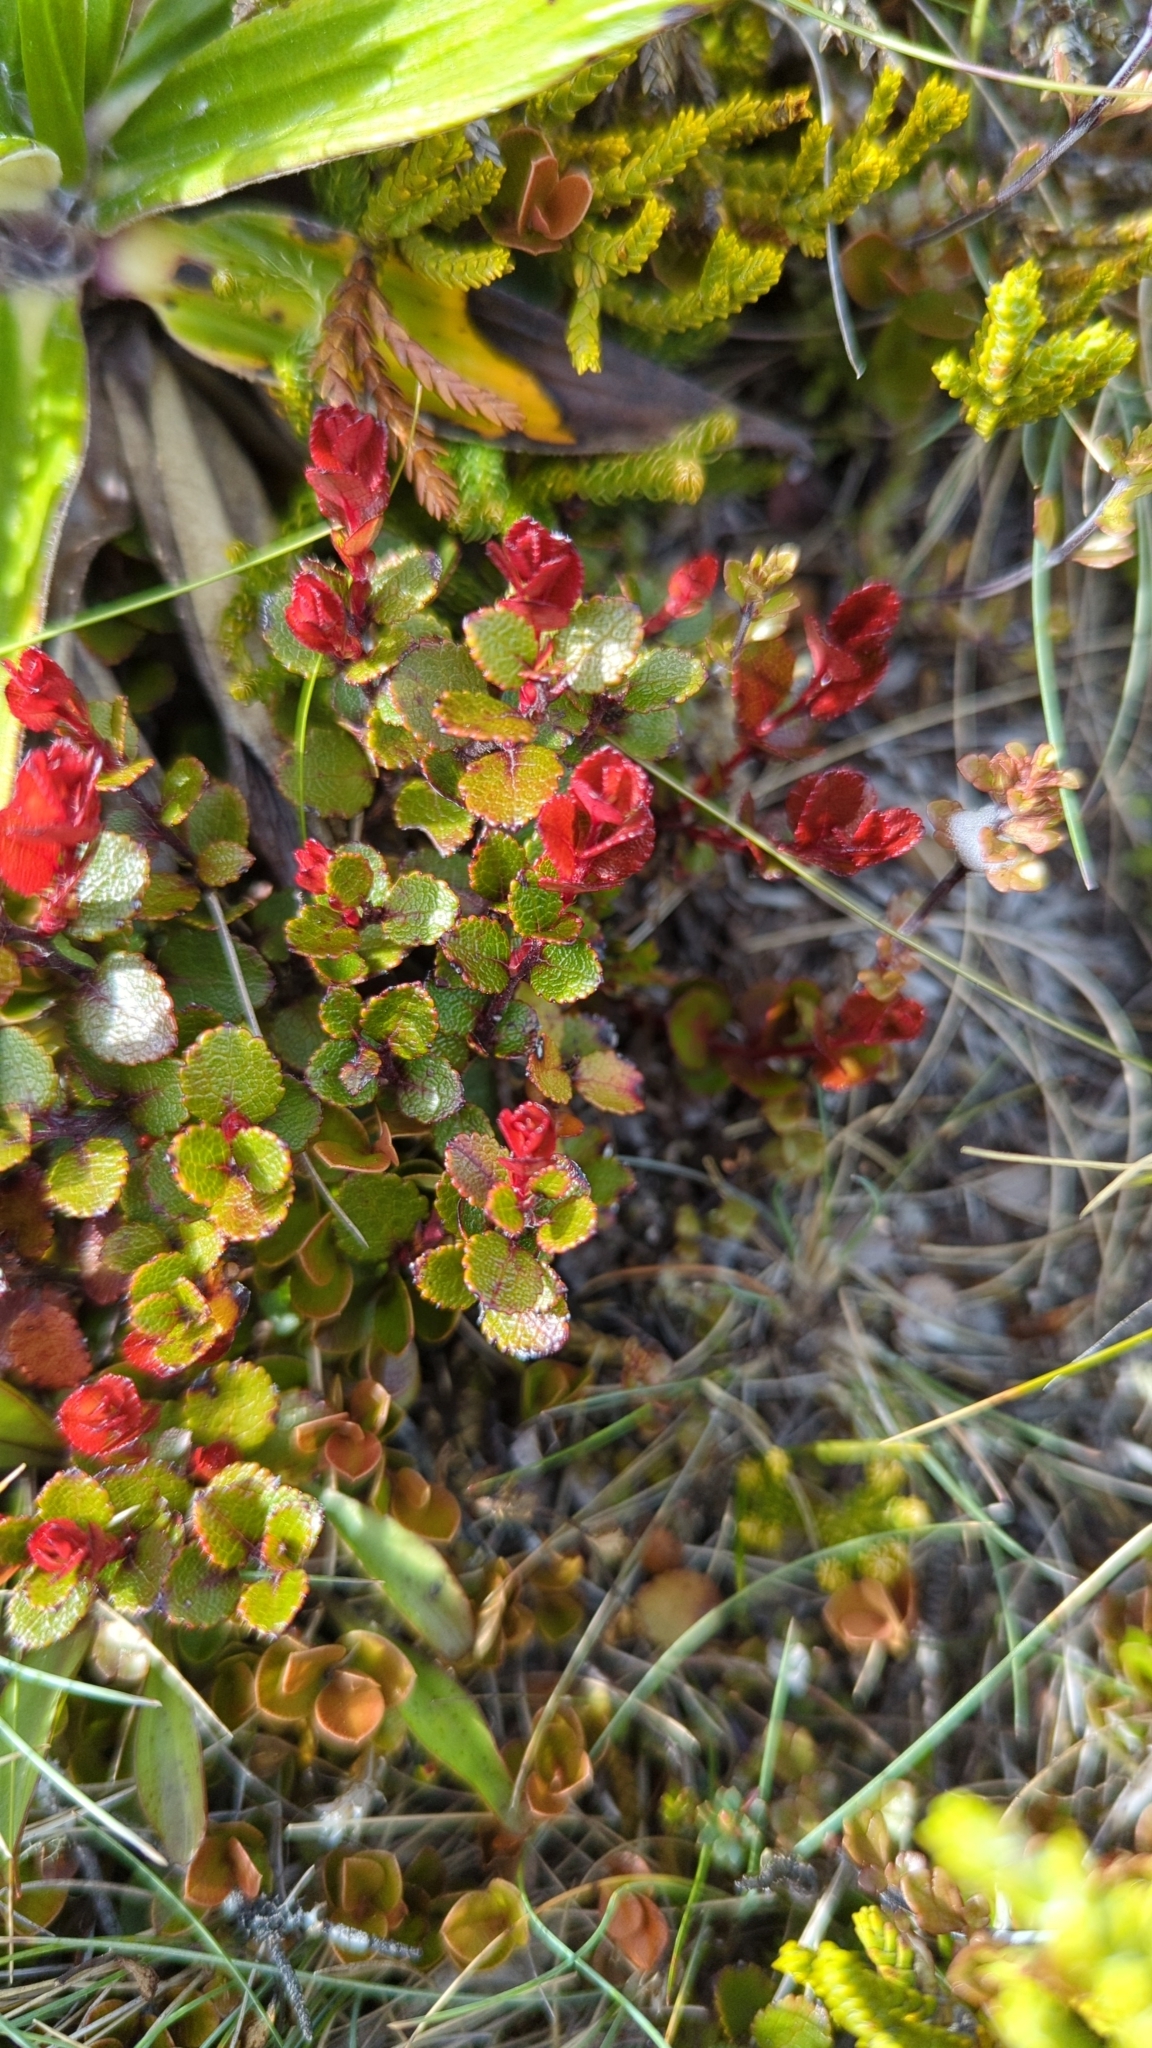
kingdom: Plantae
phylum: Tracheophyta
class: Magnoliopsida
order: Ericales
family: Ericaceae
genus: Gaultheria
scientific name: Gaultheria depressa
